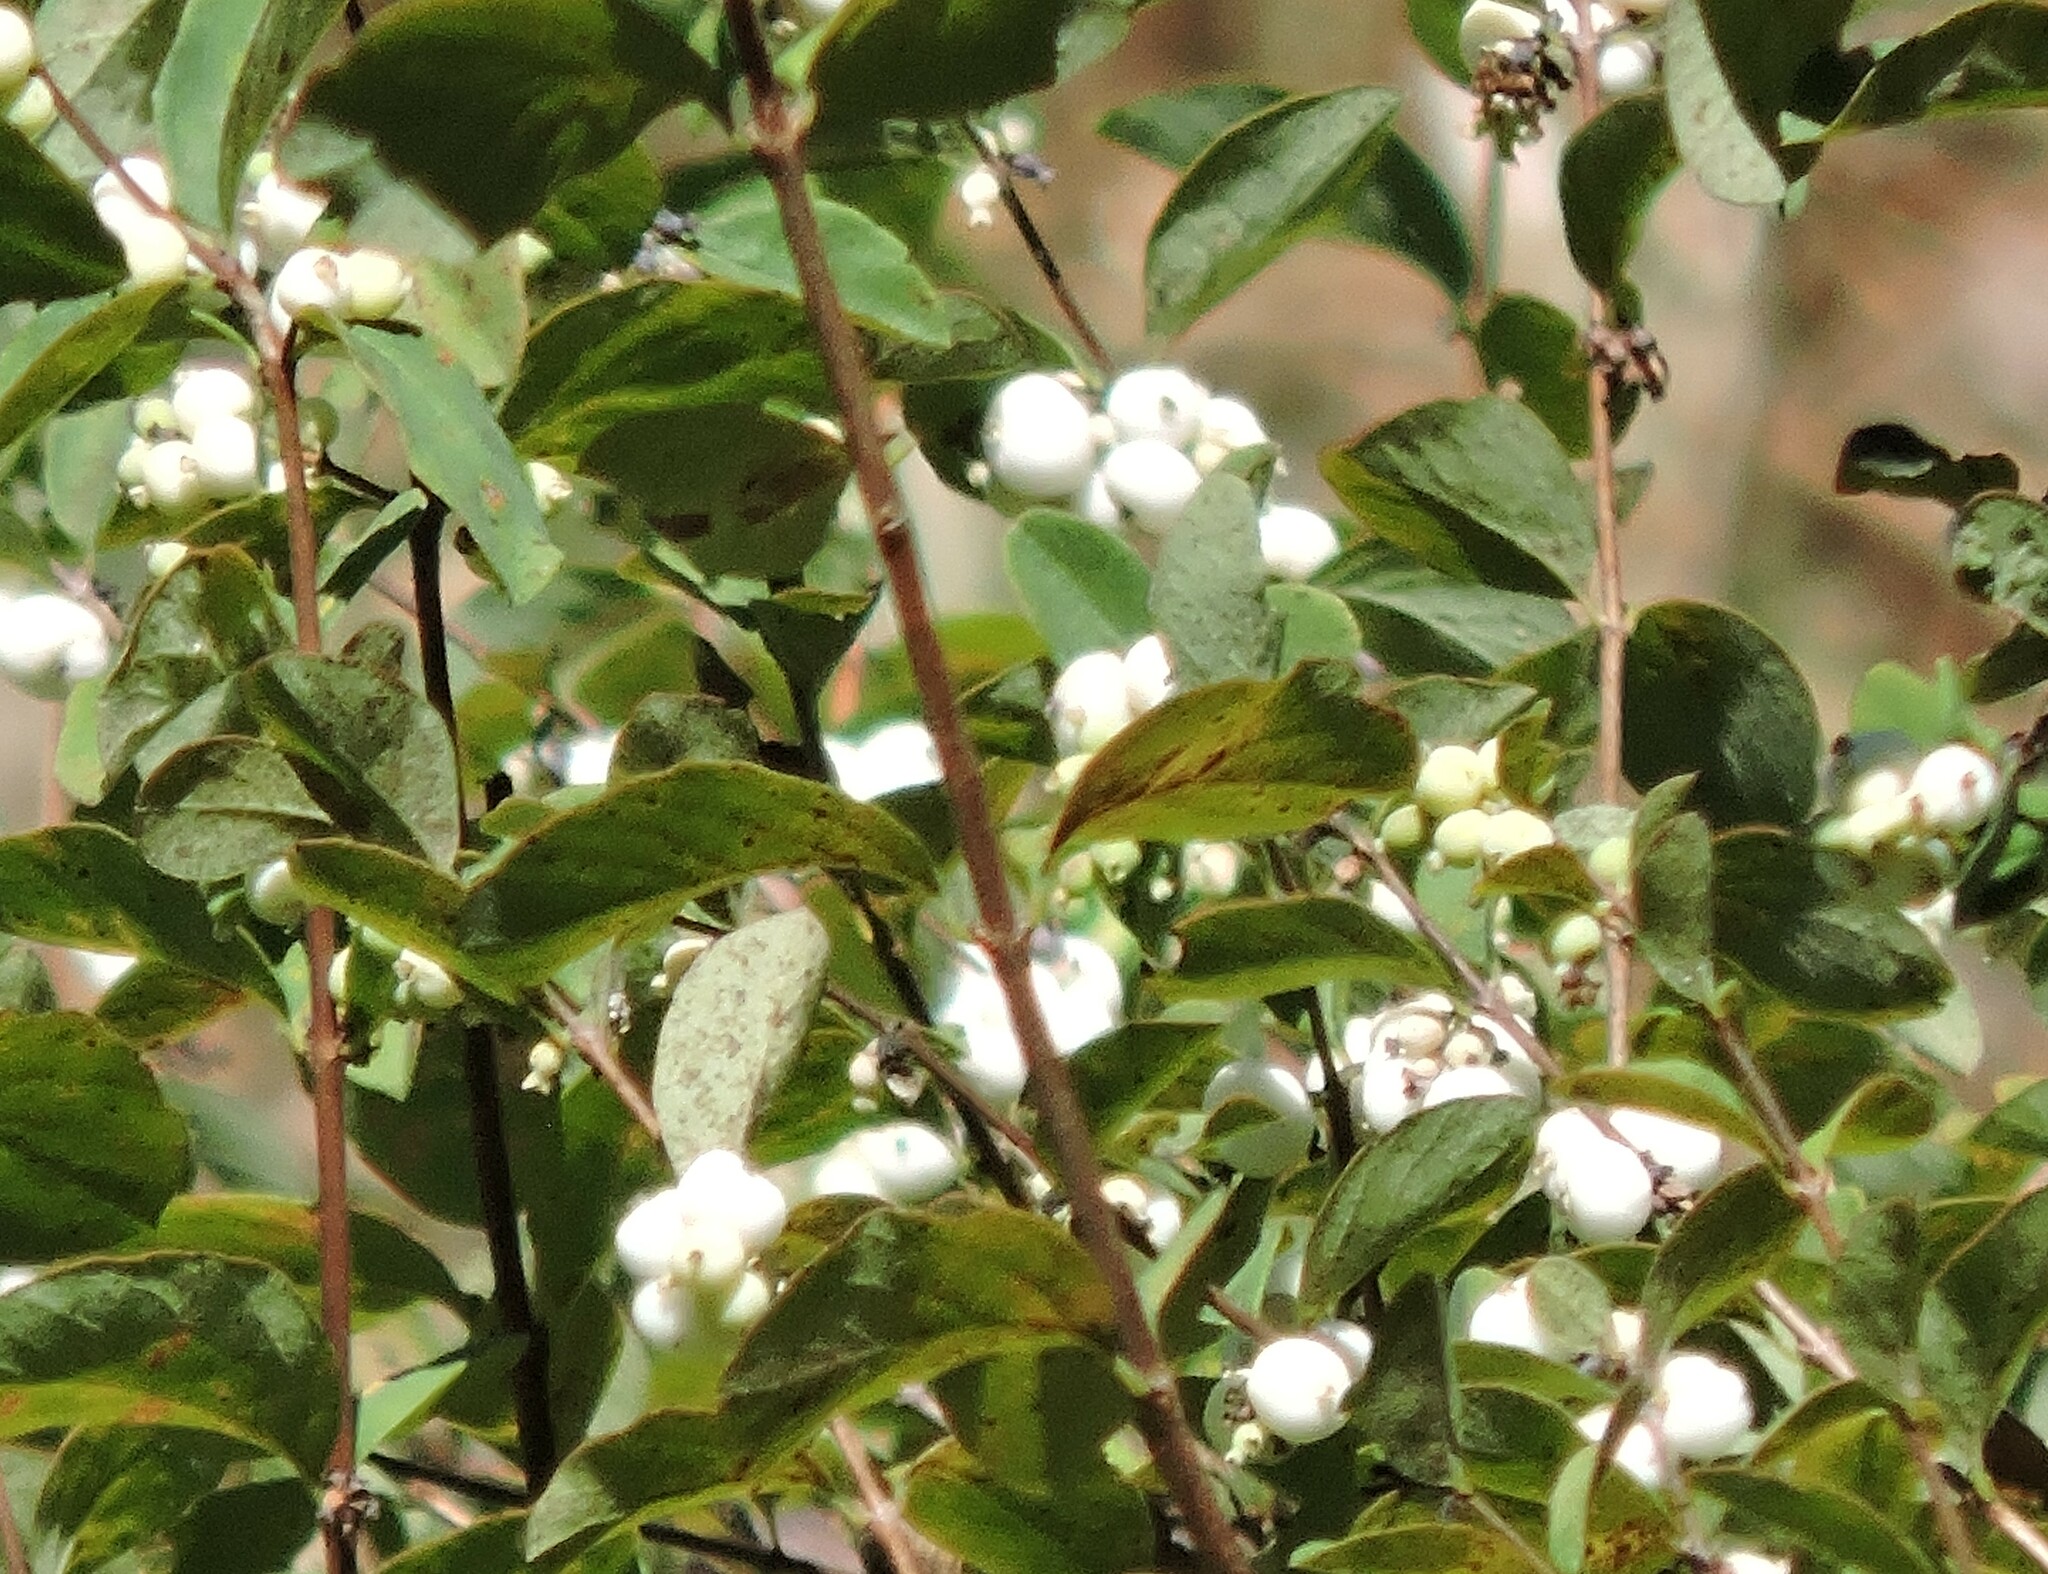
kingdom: Plantae
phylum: Tracheophyta
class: Magnoliopsida
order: Dipsacales
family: Caprifoliaceae
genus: Symphoricarpos
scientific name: Symphoricarpos albus
